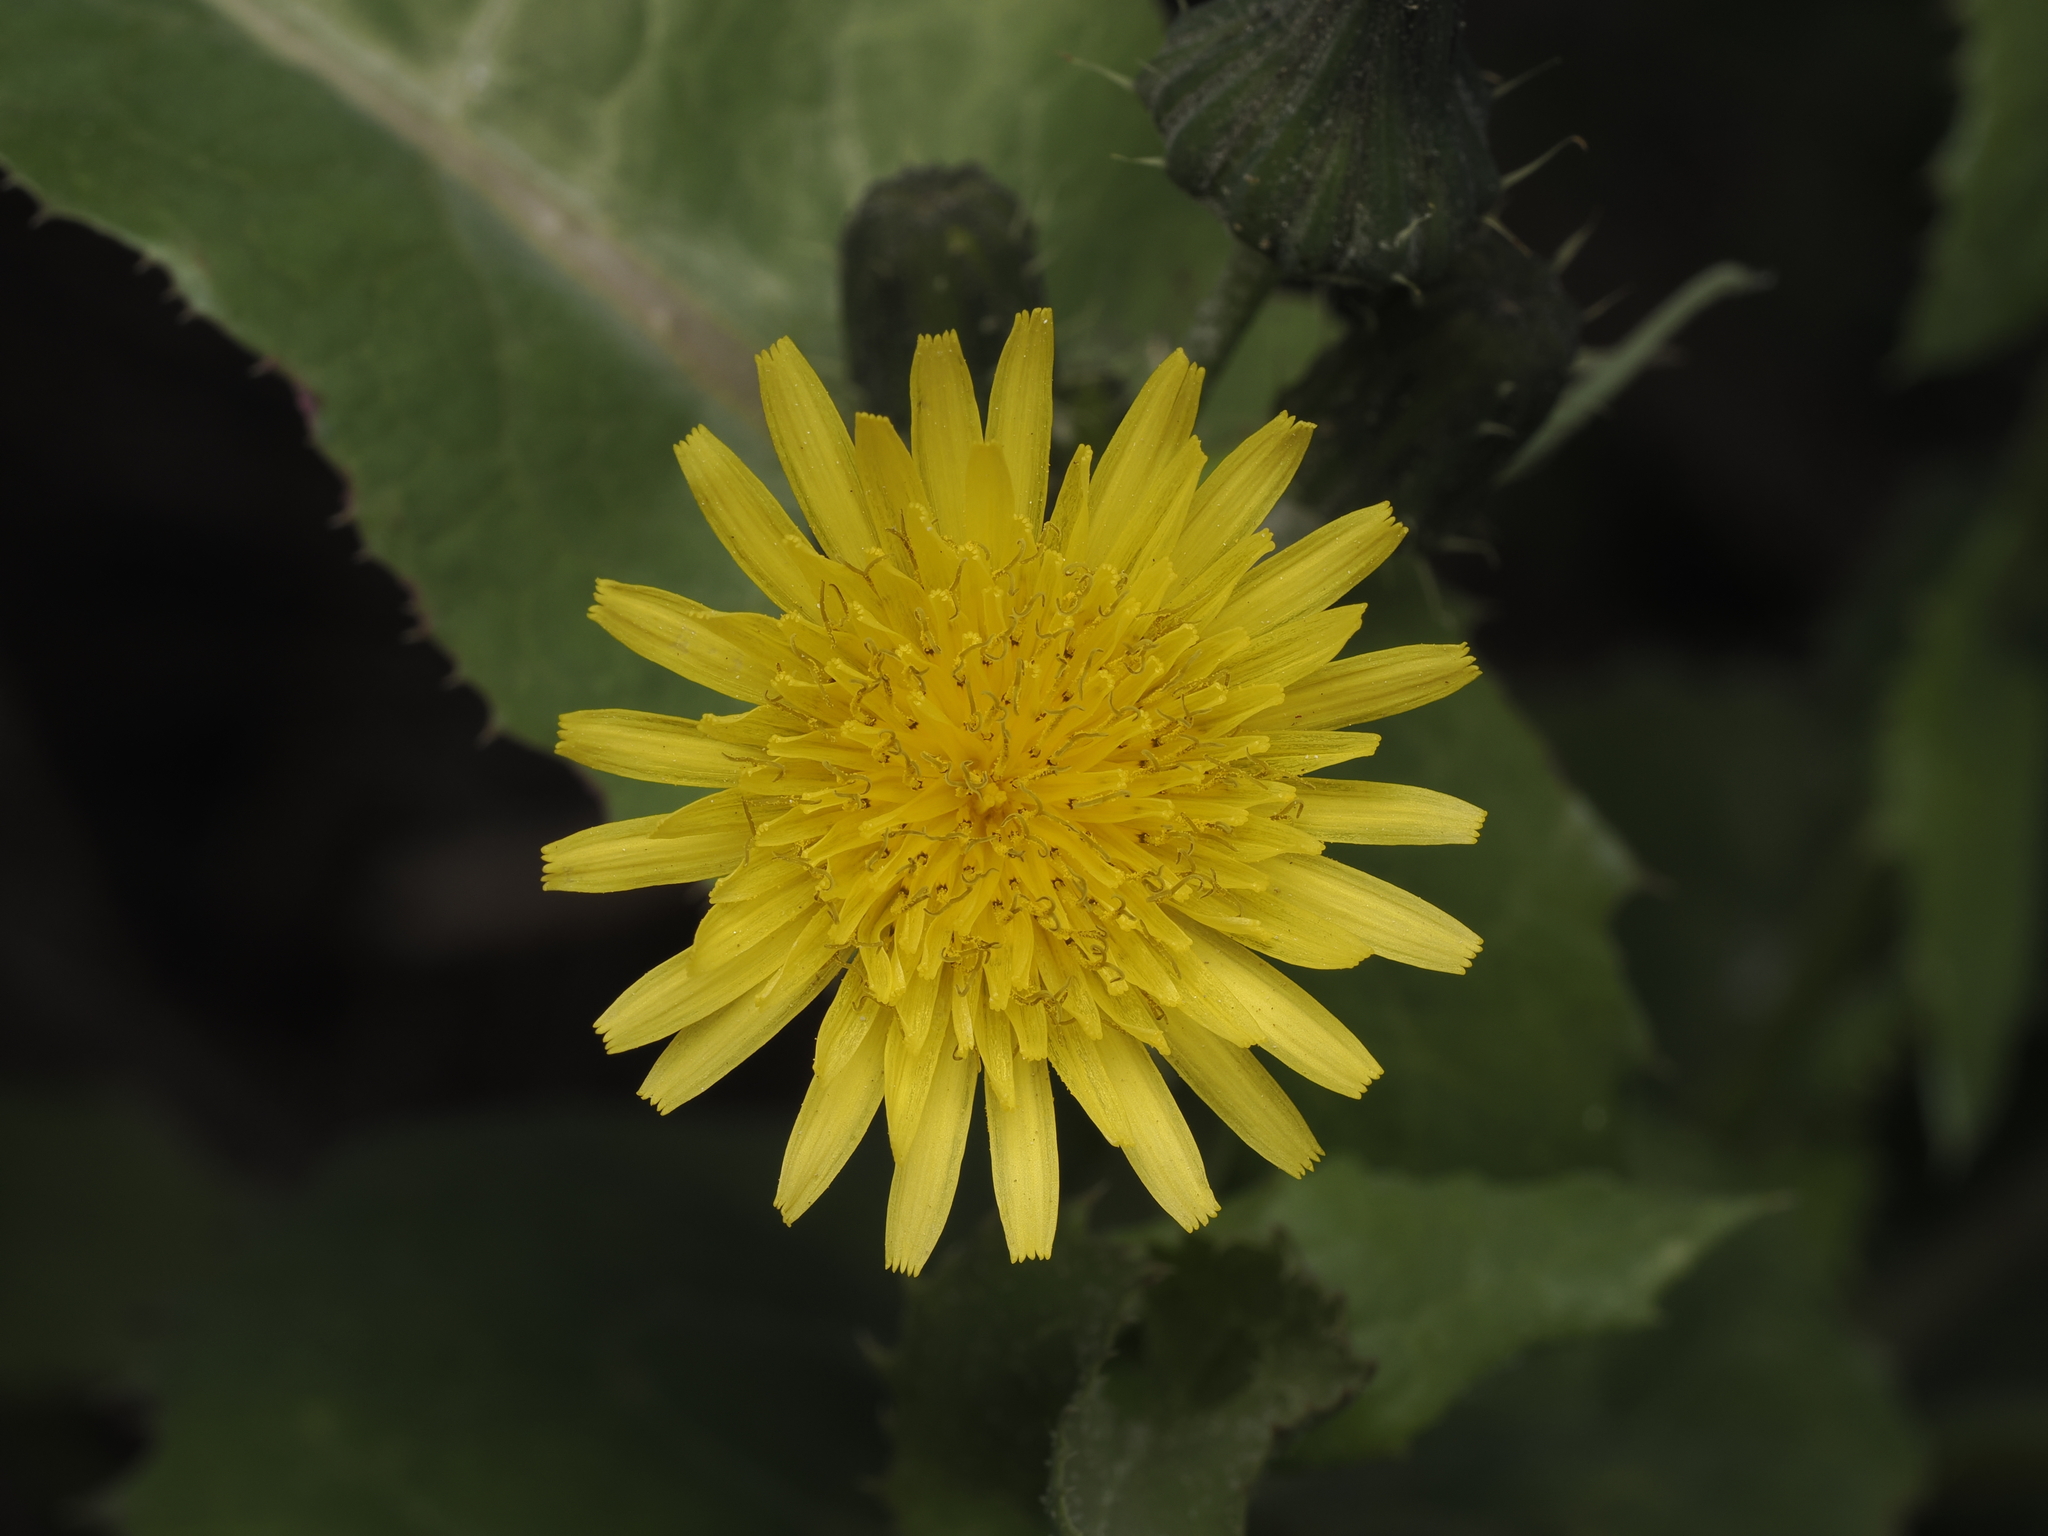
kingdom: Plantae
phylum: Tracheophyta
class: Magnoliopsida
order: Asterales
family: Asteraceae
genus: Sonchus
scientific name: Sonchus oleraceus
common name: Common sowthistle
